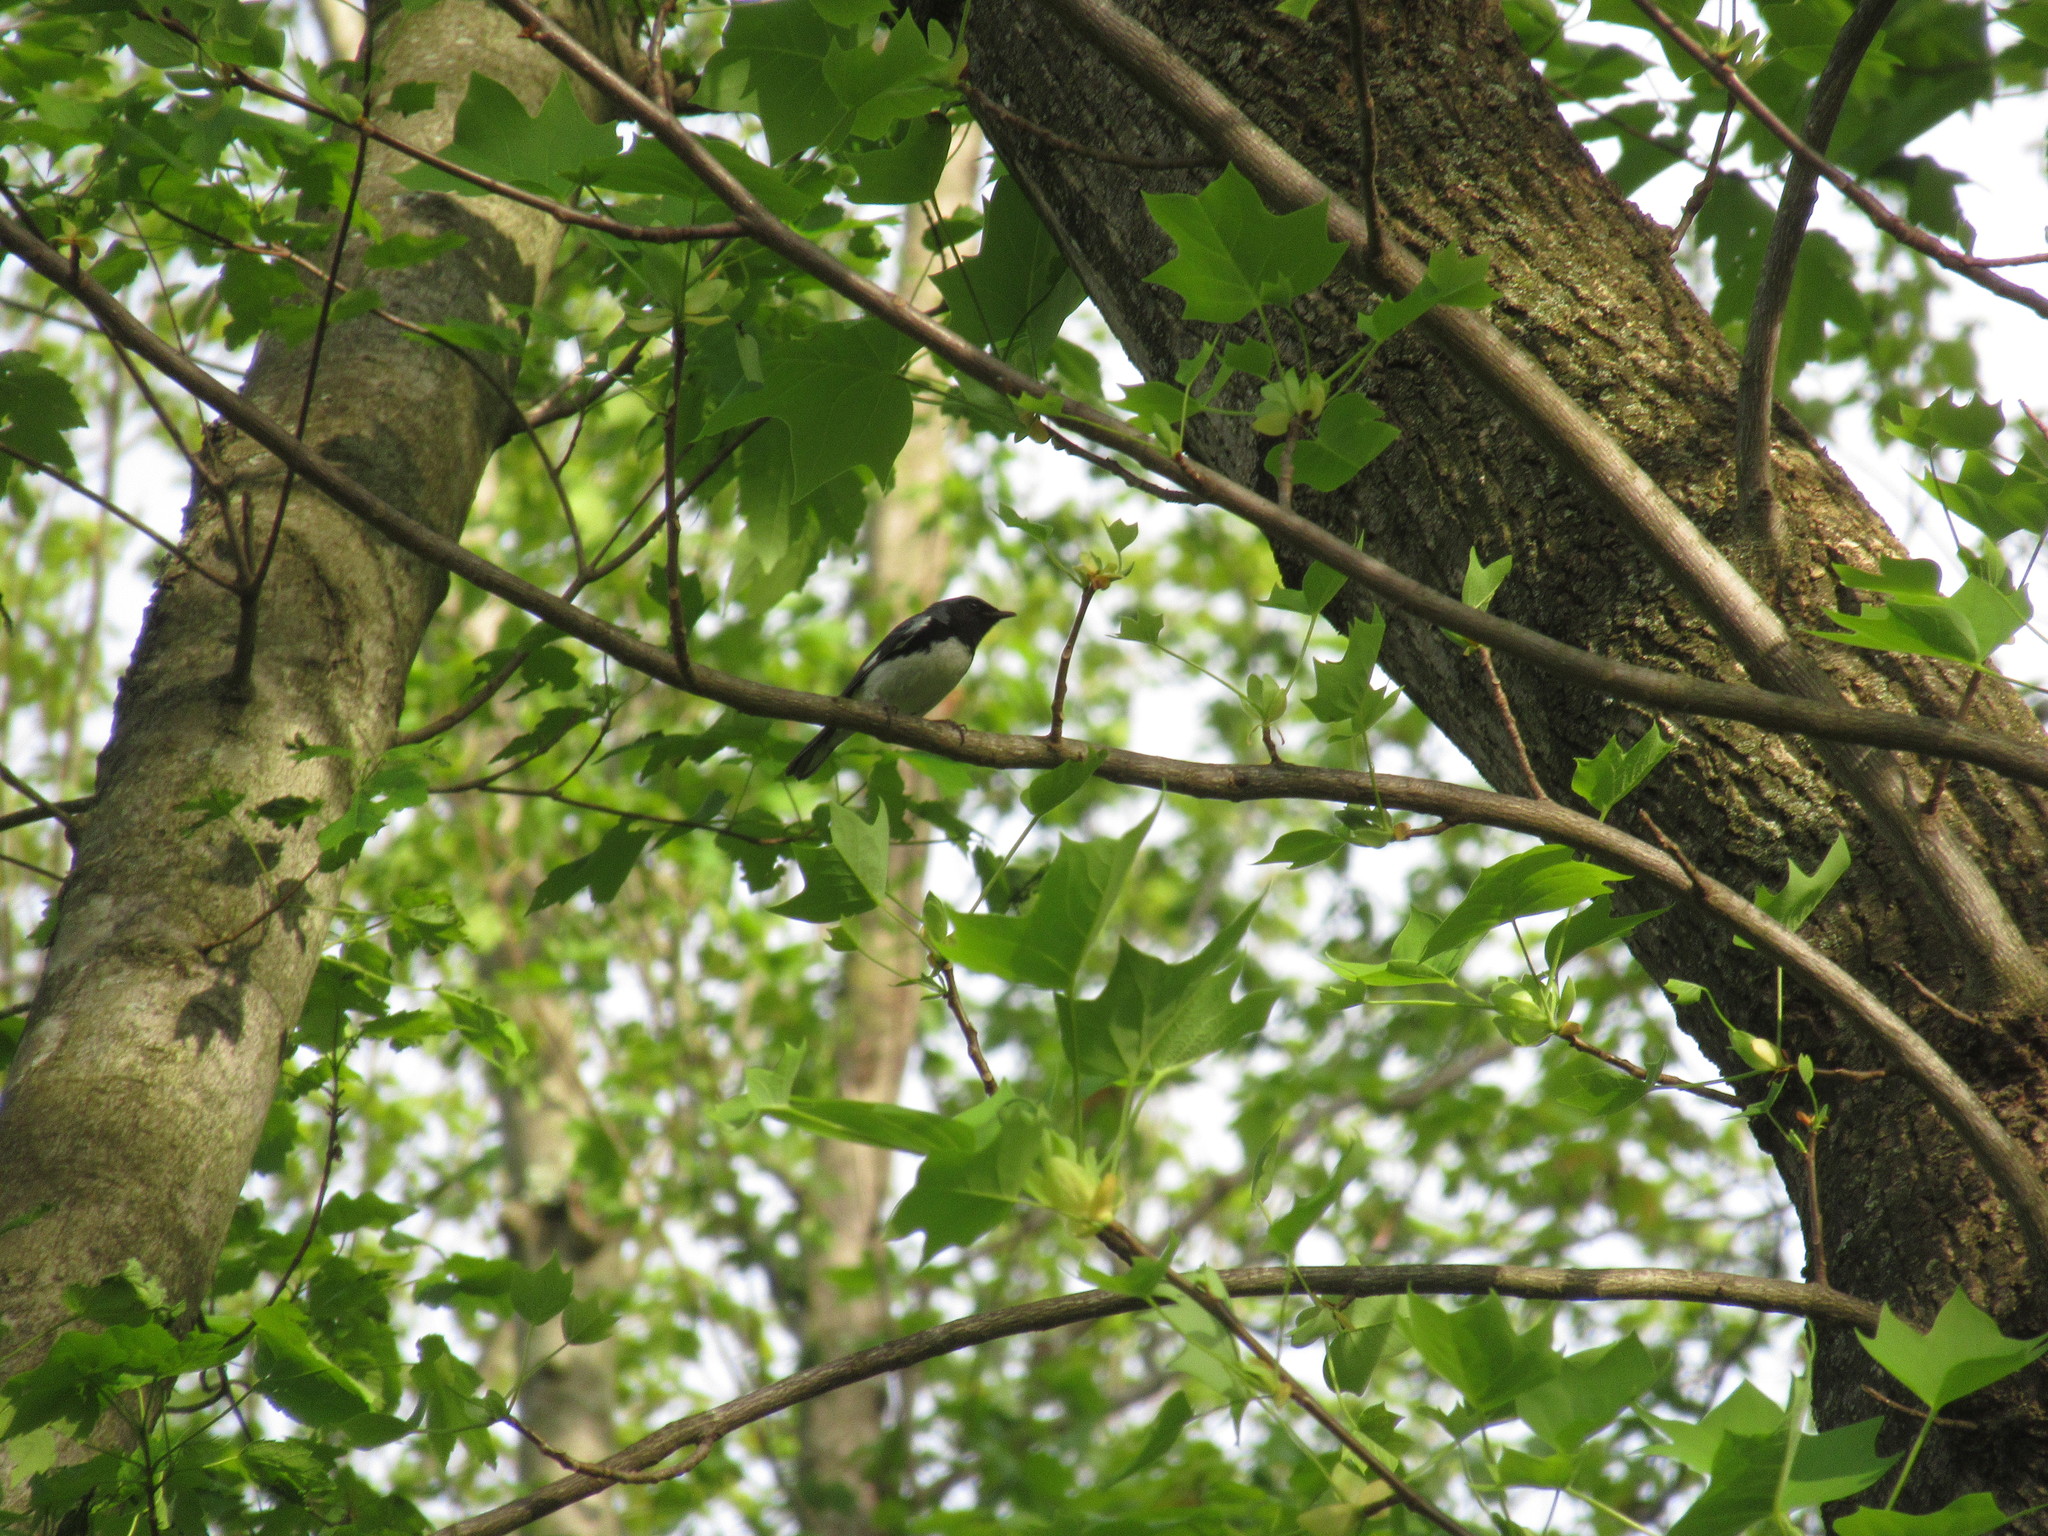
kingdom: Animalia
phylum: Chordata
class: Aves
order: Passeriformes
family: Parulidae
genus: Setophaga
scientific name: Setophaga caerulescens
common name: Black-throated blue warbler
